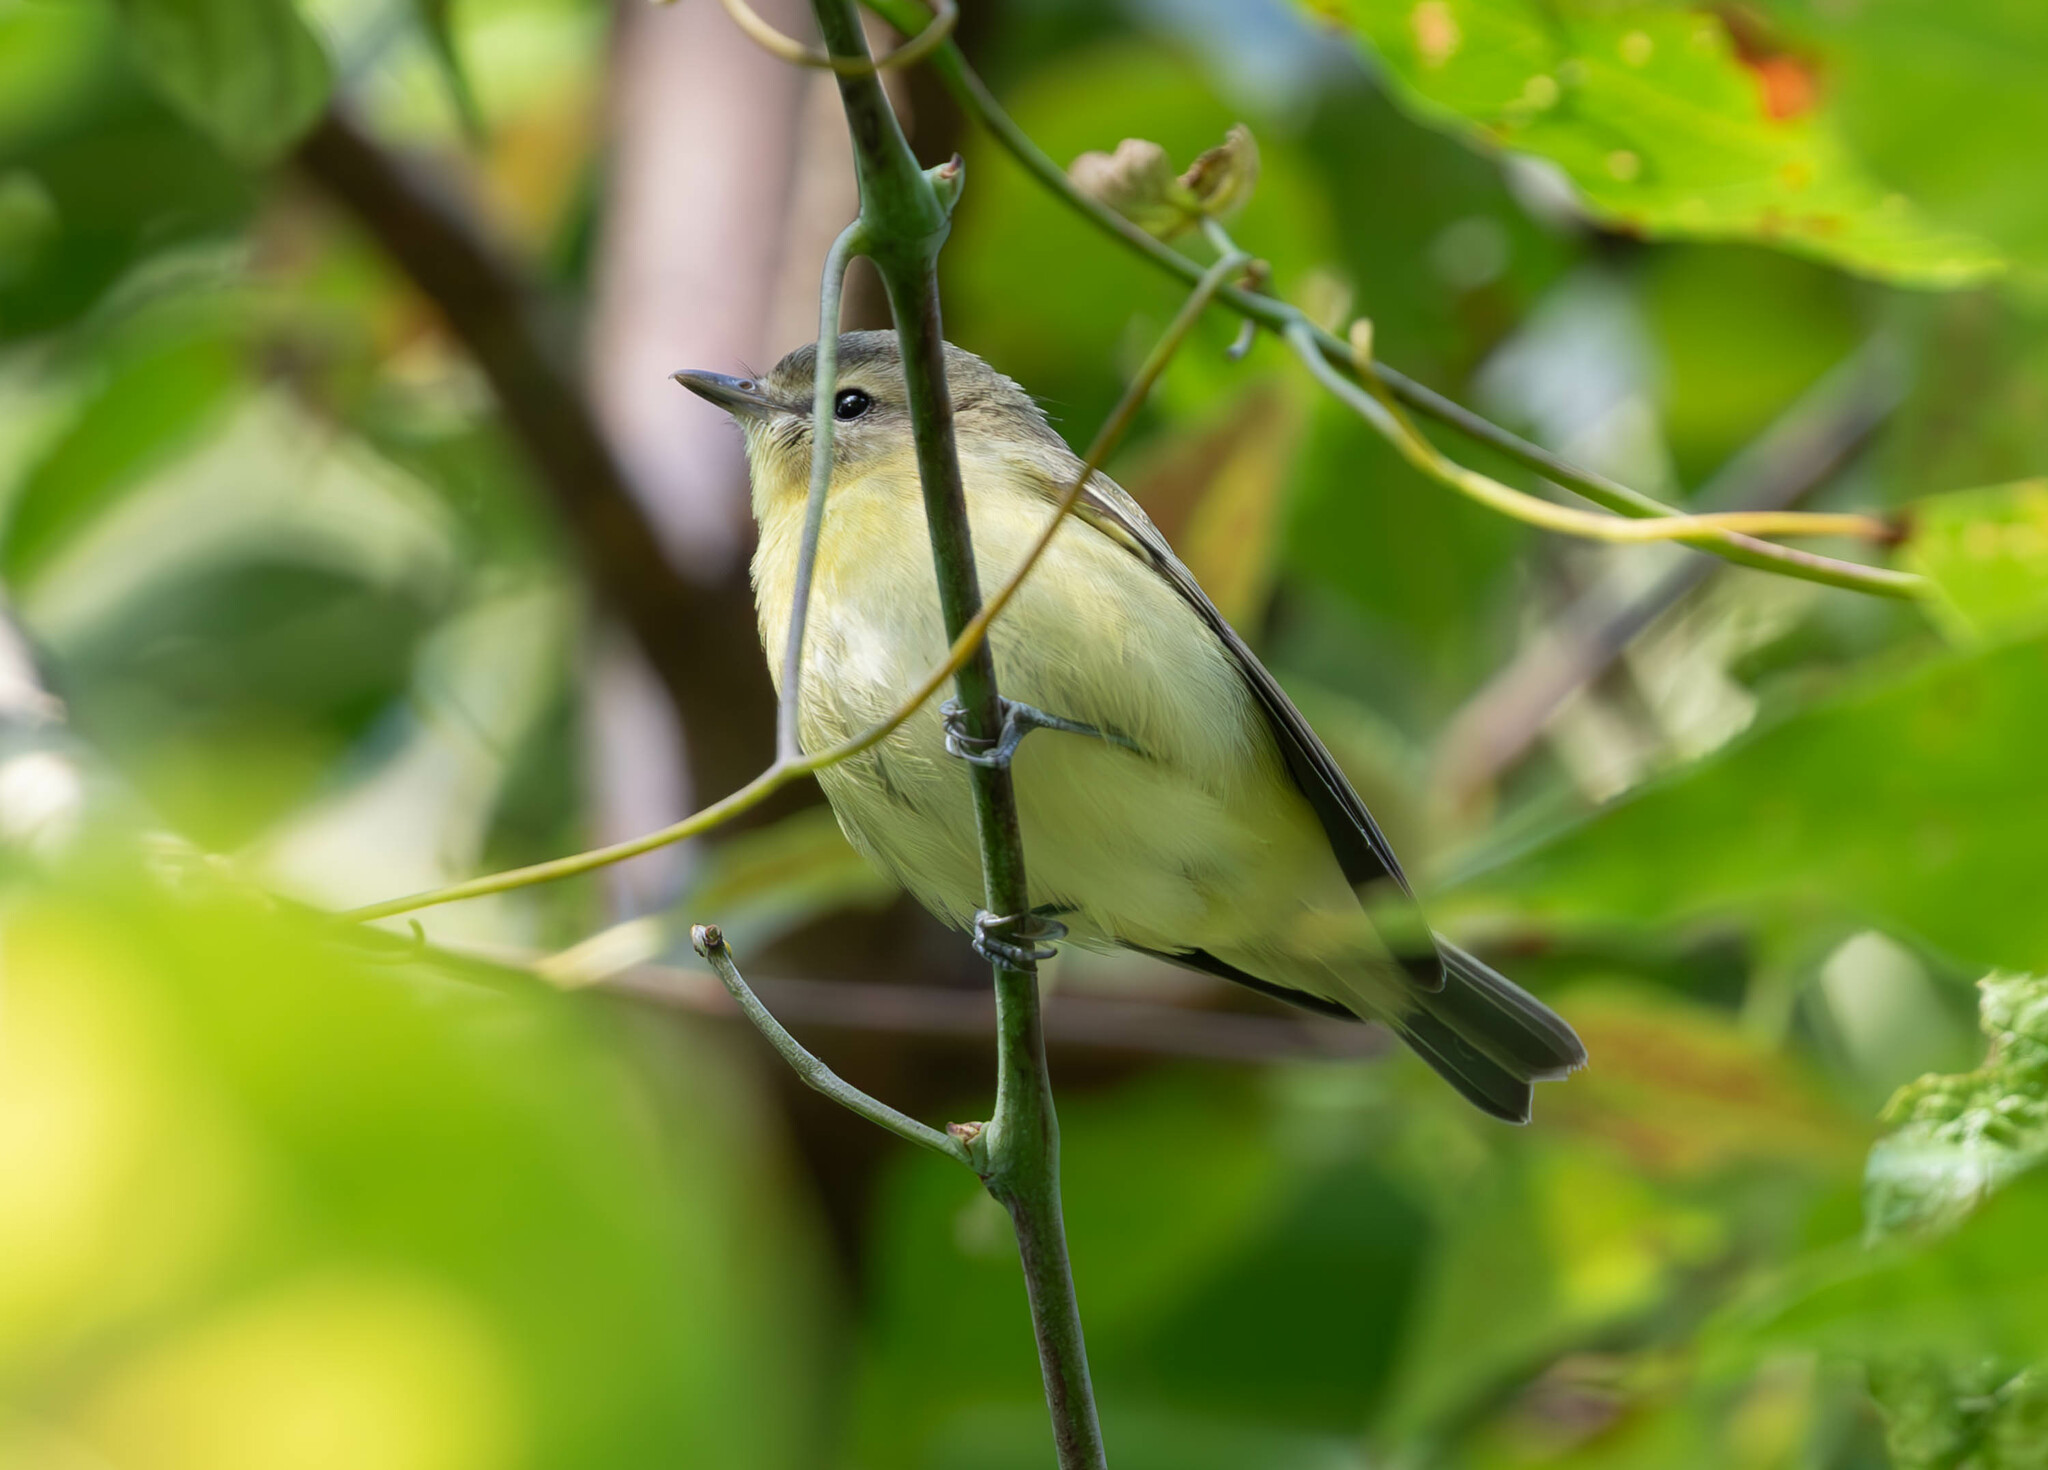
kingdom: Animalia
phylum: Chordata
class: Aves
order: Passeriformes
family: Vireonidae
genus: Vireo
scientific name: Vireo philadelphicus
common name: Philadelphia vireo
